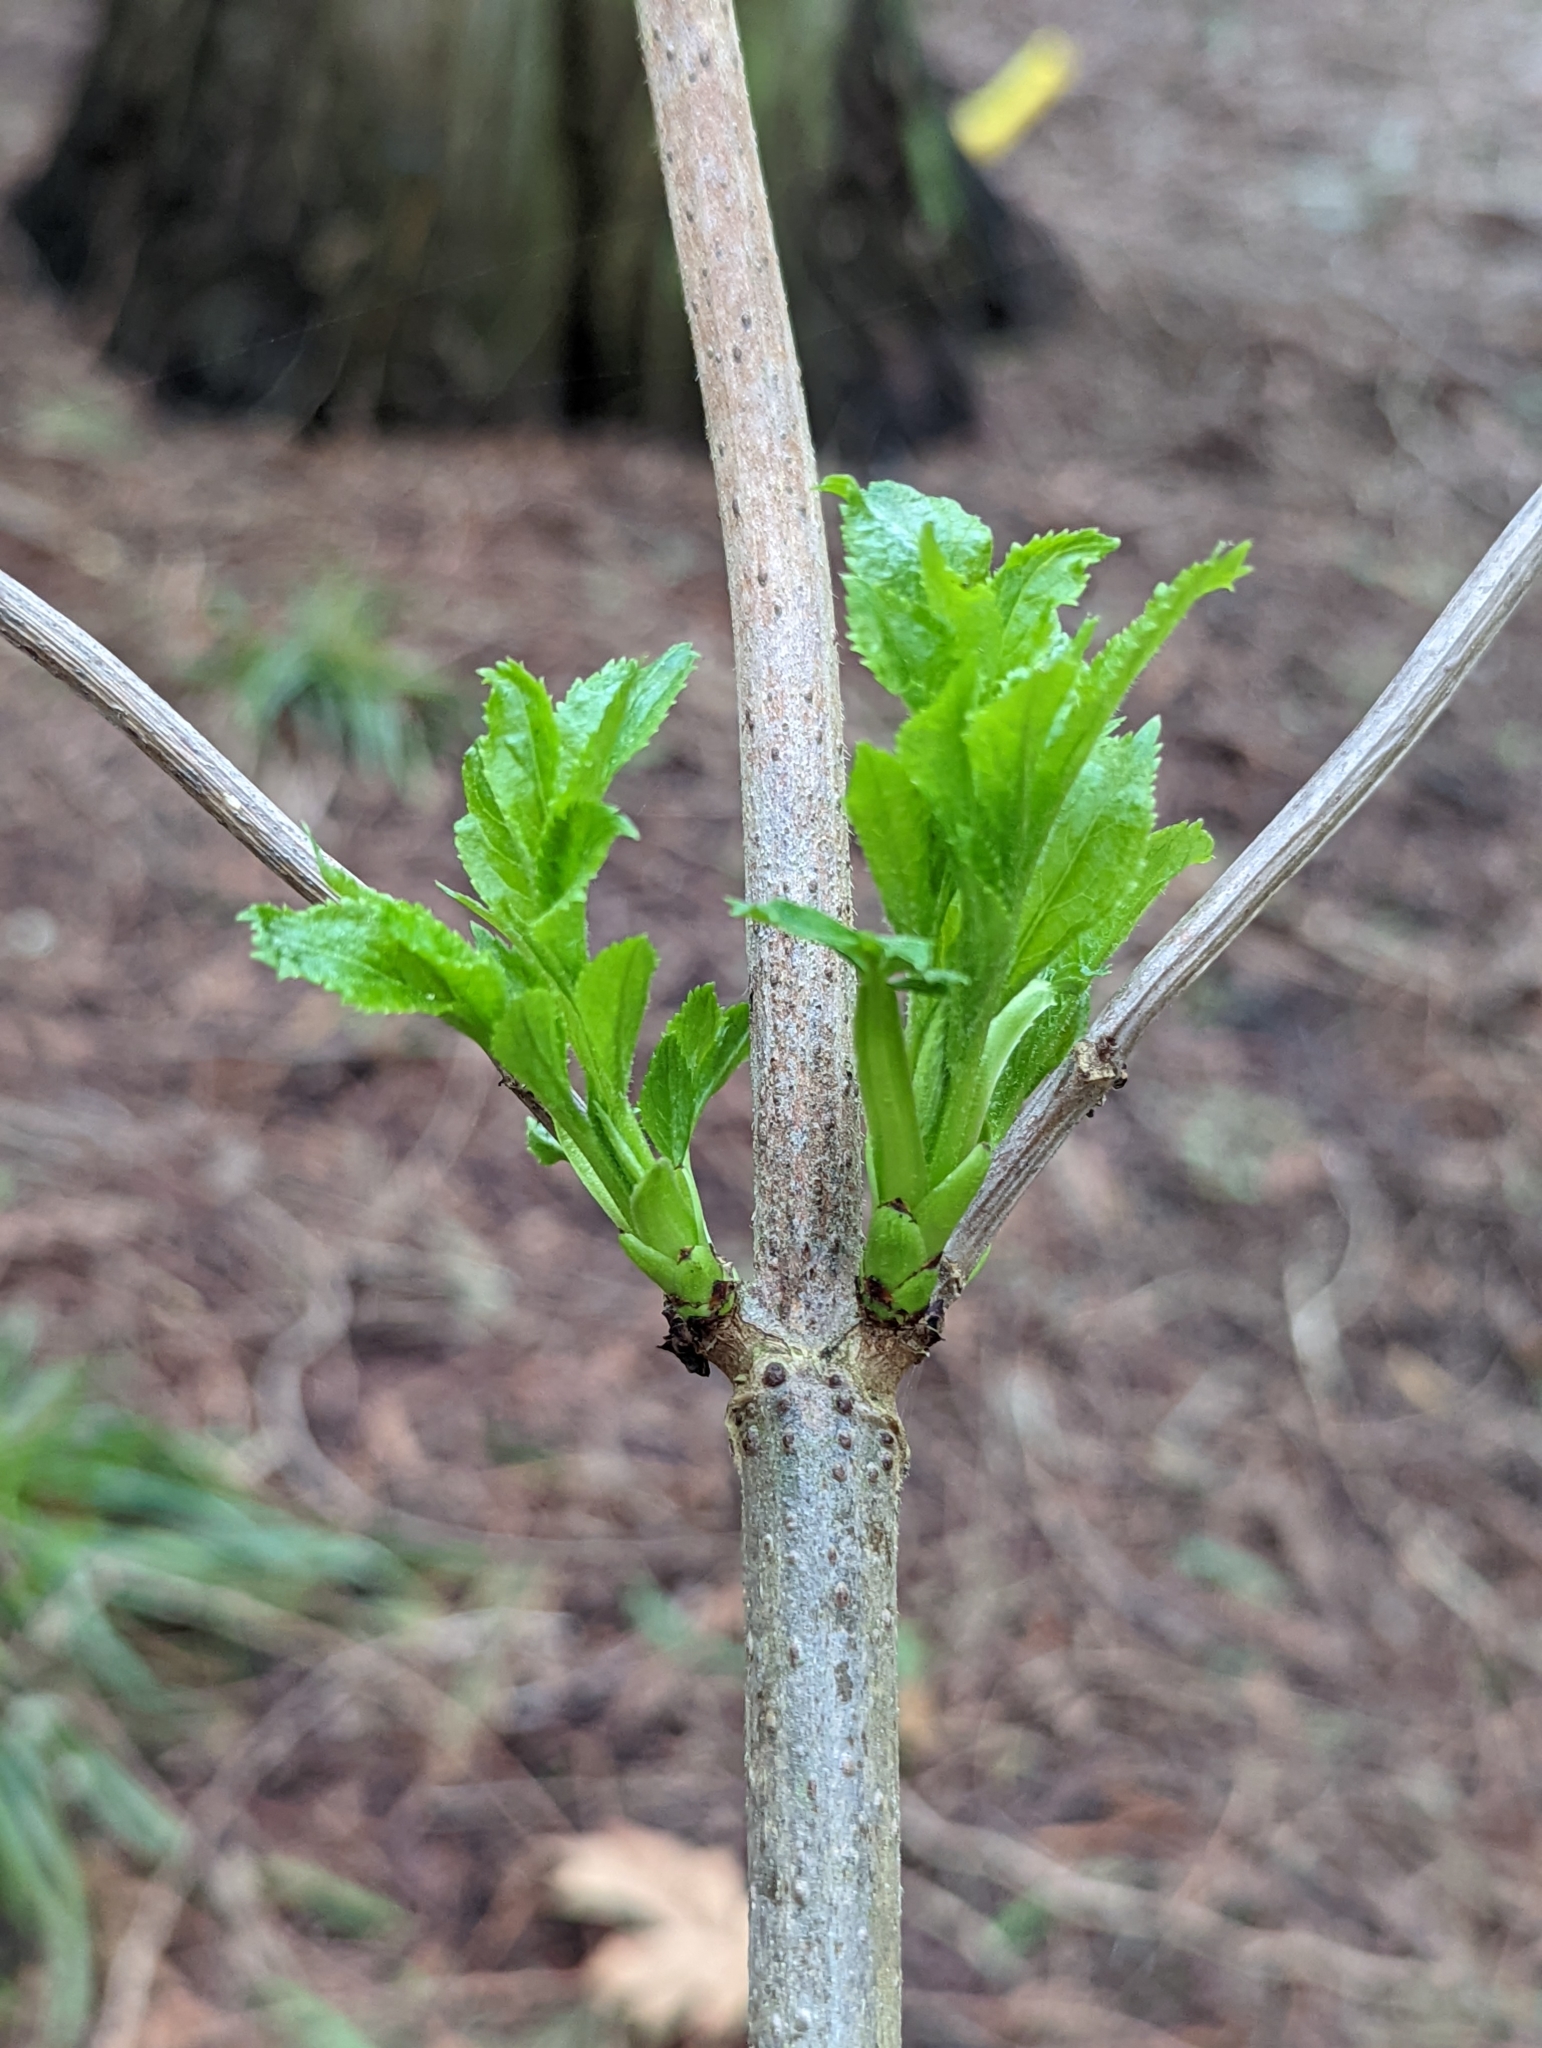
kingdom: Plantae
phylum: Tracheophyta
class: Magnoliopsida
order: Dipsacales
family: Viburnaceae
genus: Sambucus
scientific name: Sambucus racemosa
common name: Red-berried elder
